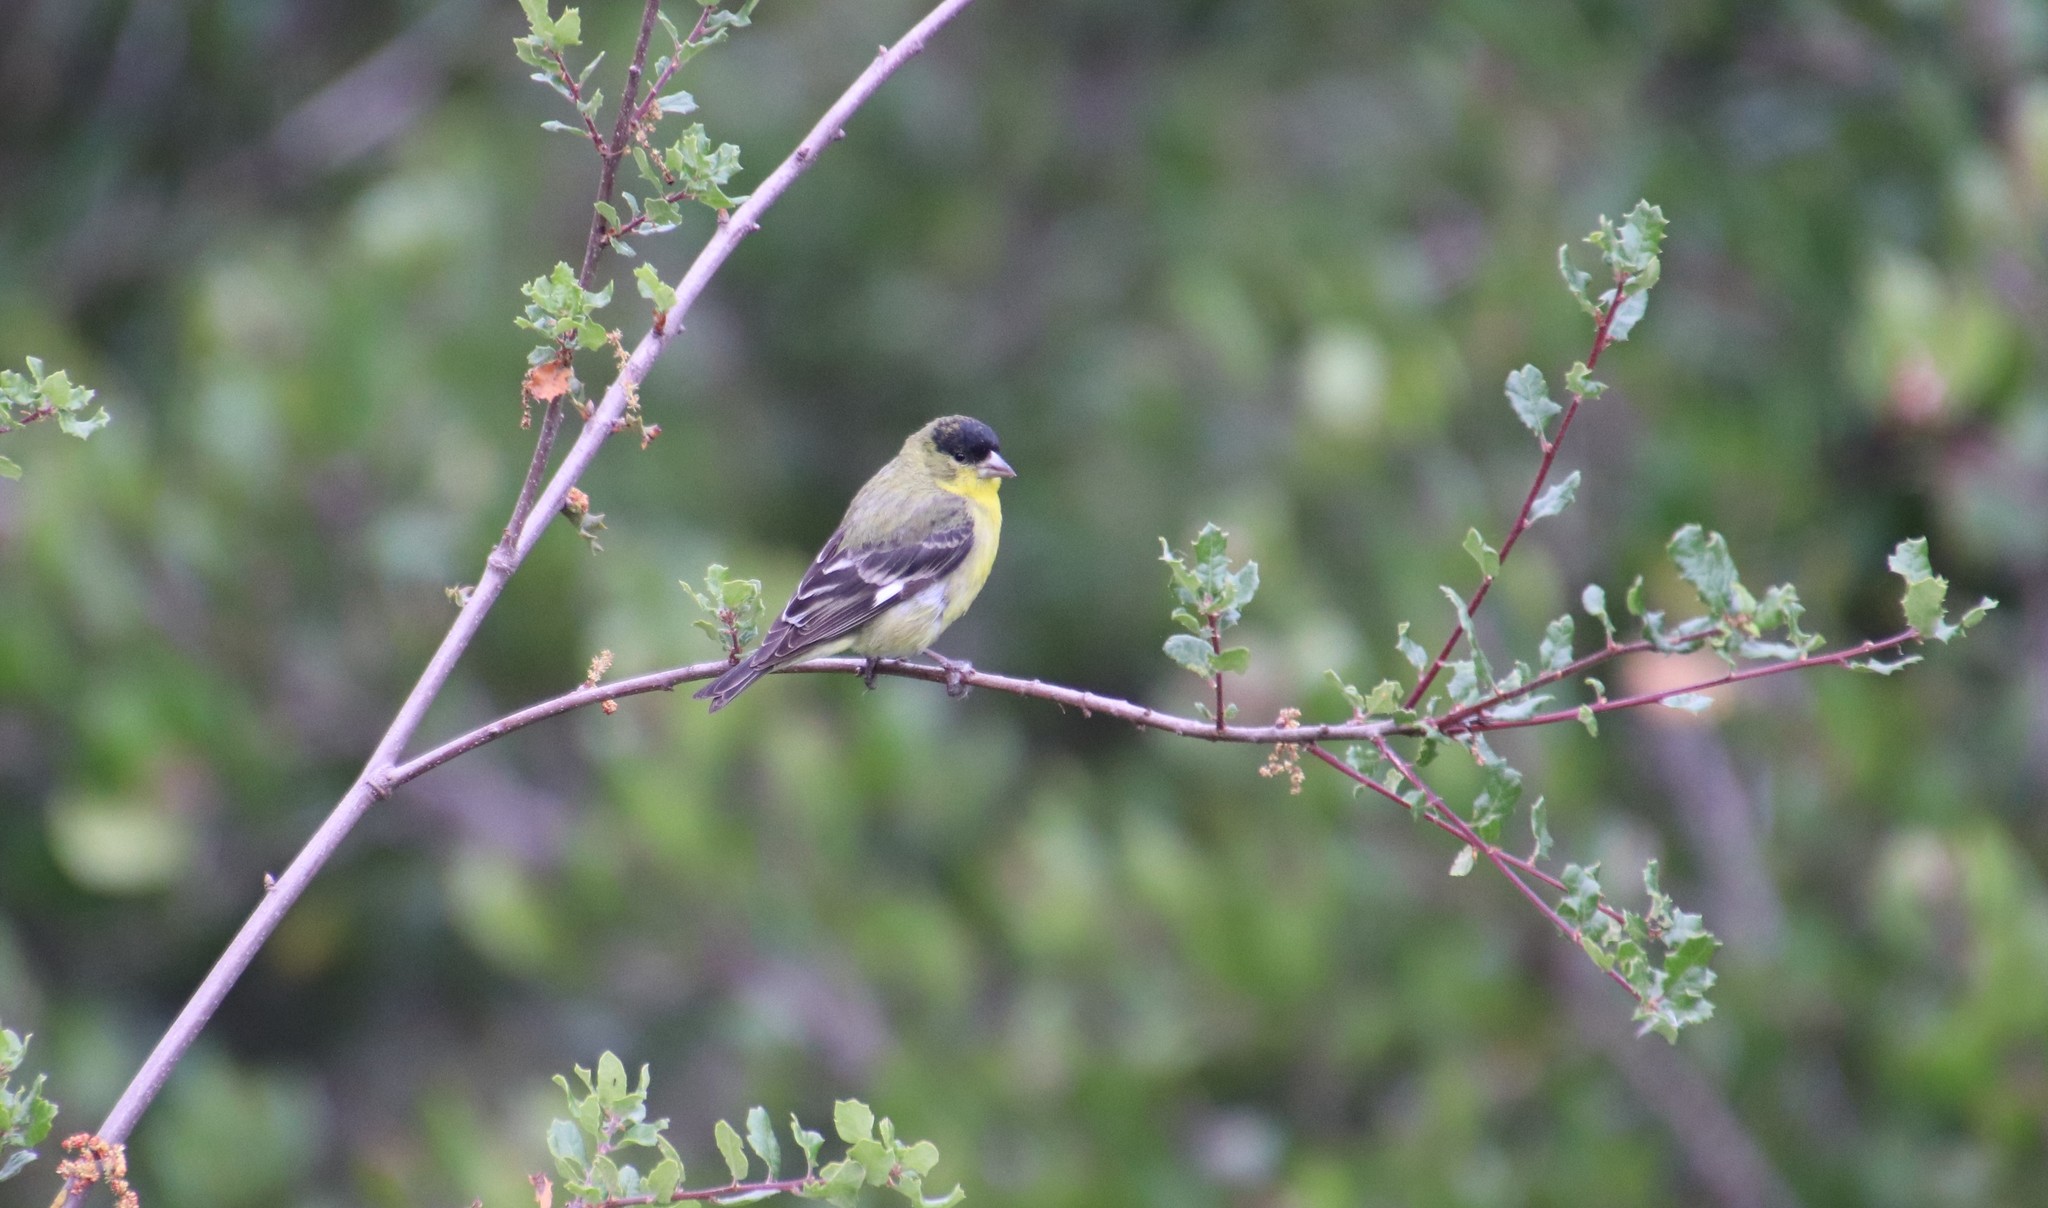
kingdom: Animalia
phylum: Chordata
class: Aves
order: Passeriformes
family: Fringillidae
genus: Spinus
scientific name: Spinus psaltria
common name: Lesser goldfinch
